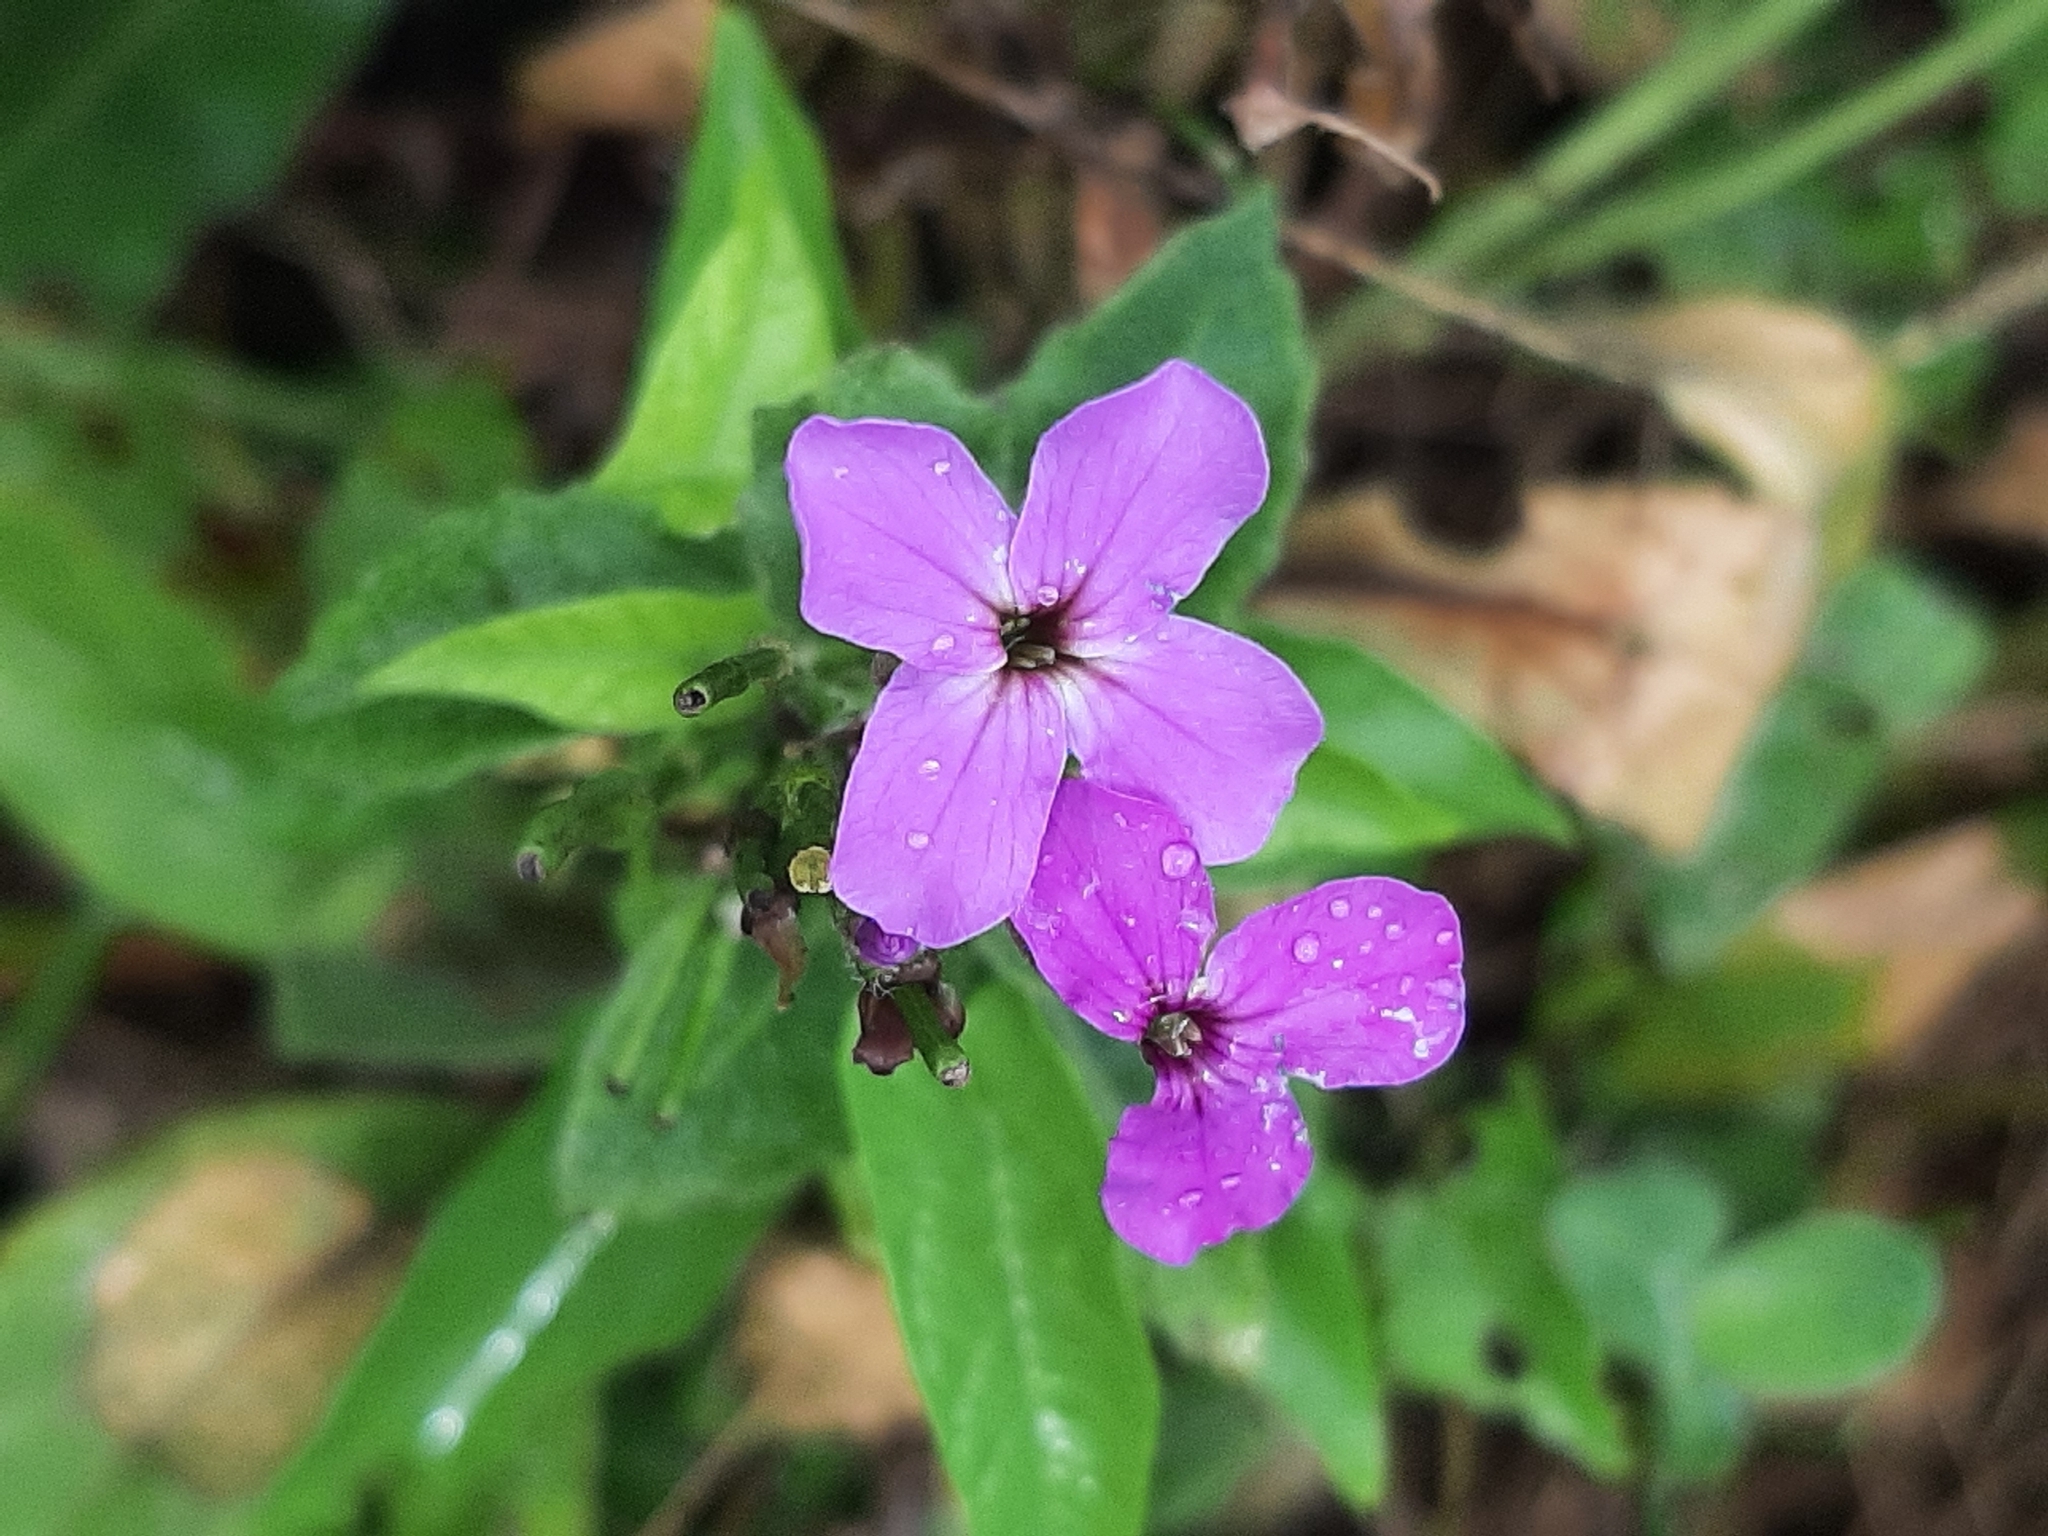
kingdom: Plantae
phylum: Tracheophyta
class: Magnoliopsida
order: Brassicales
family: Brassicaceae
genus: Hesperis
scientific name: Hesperis matronalis
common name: Dame's-violet
